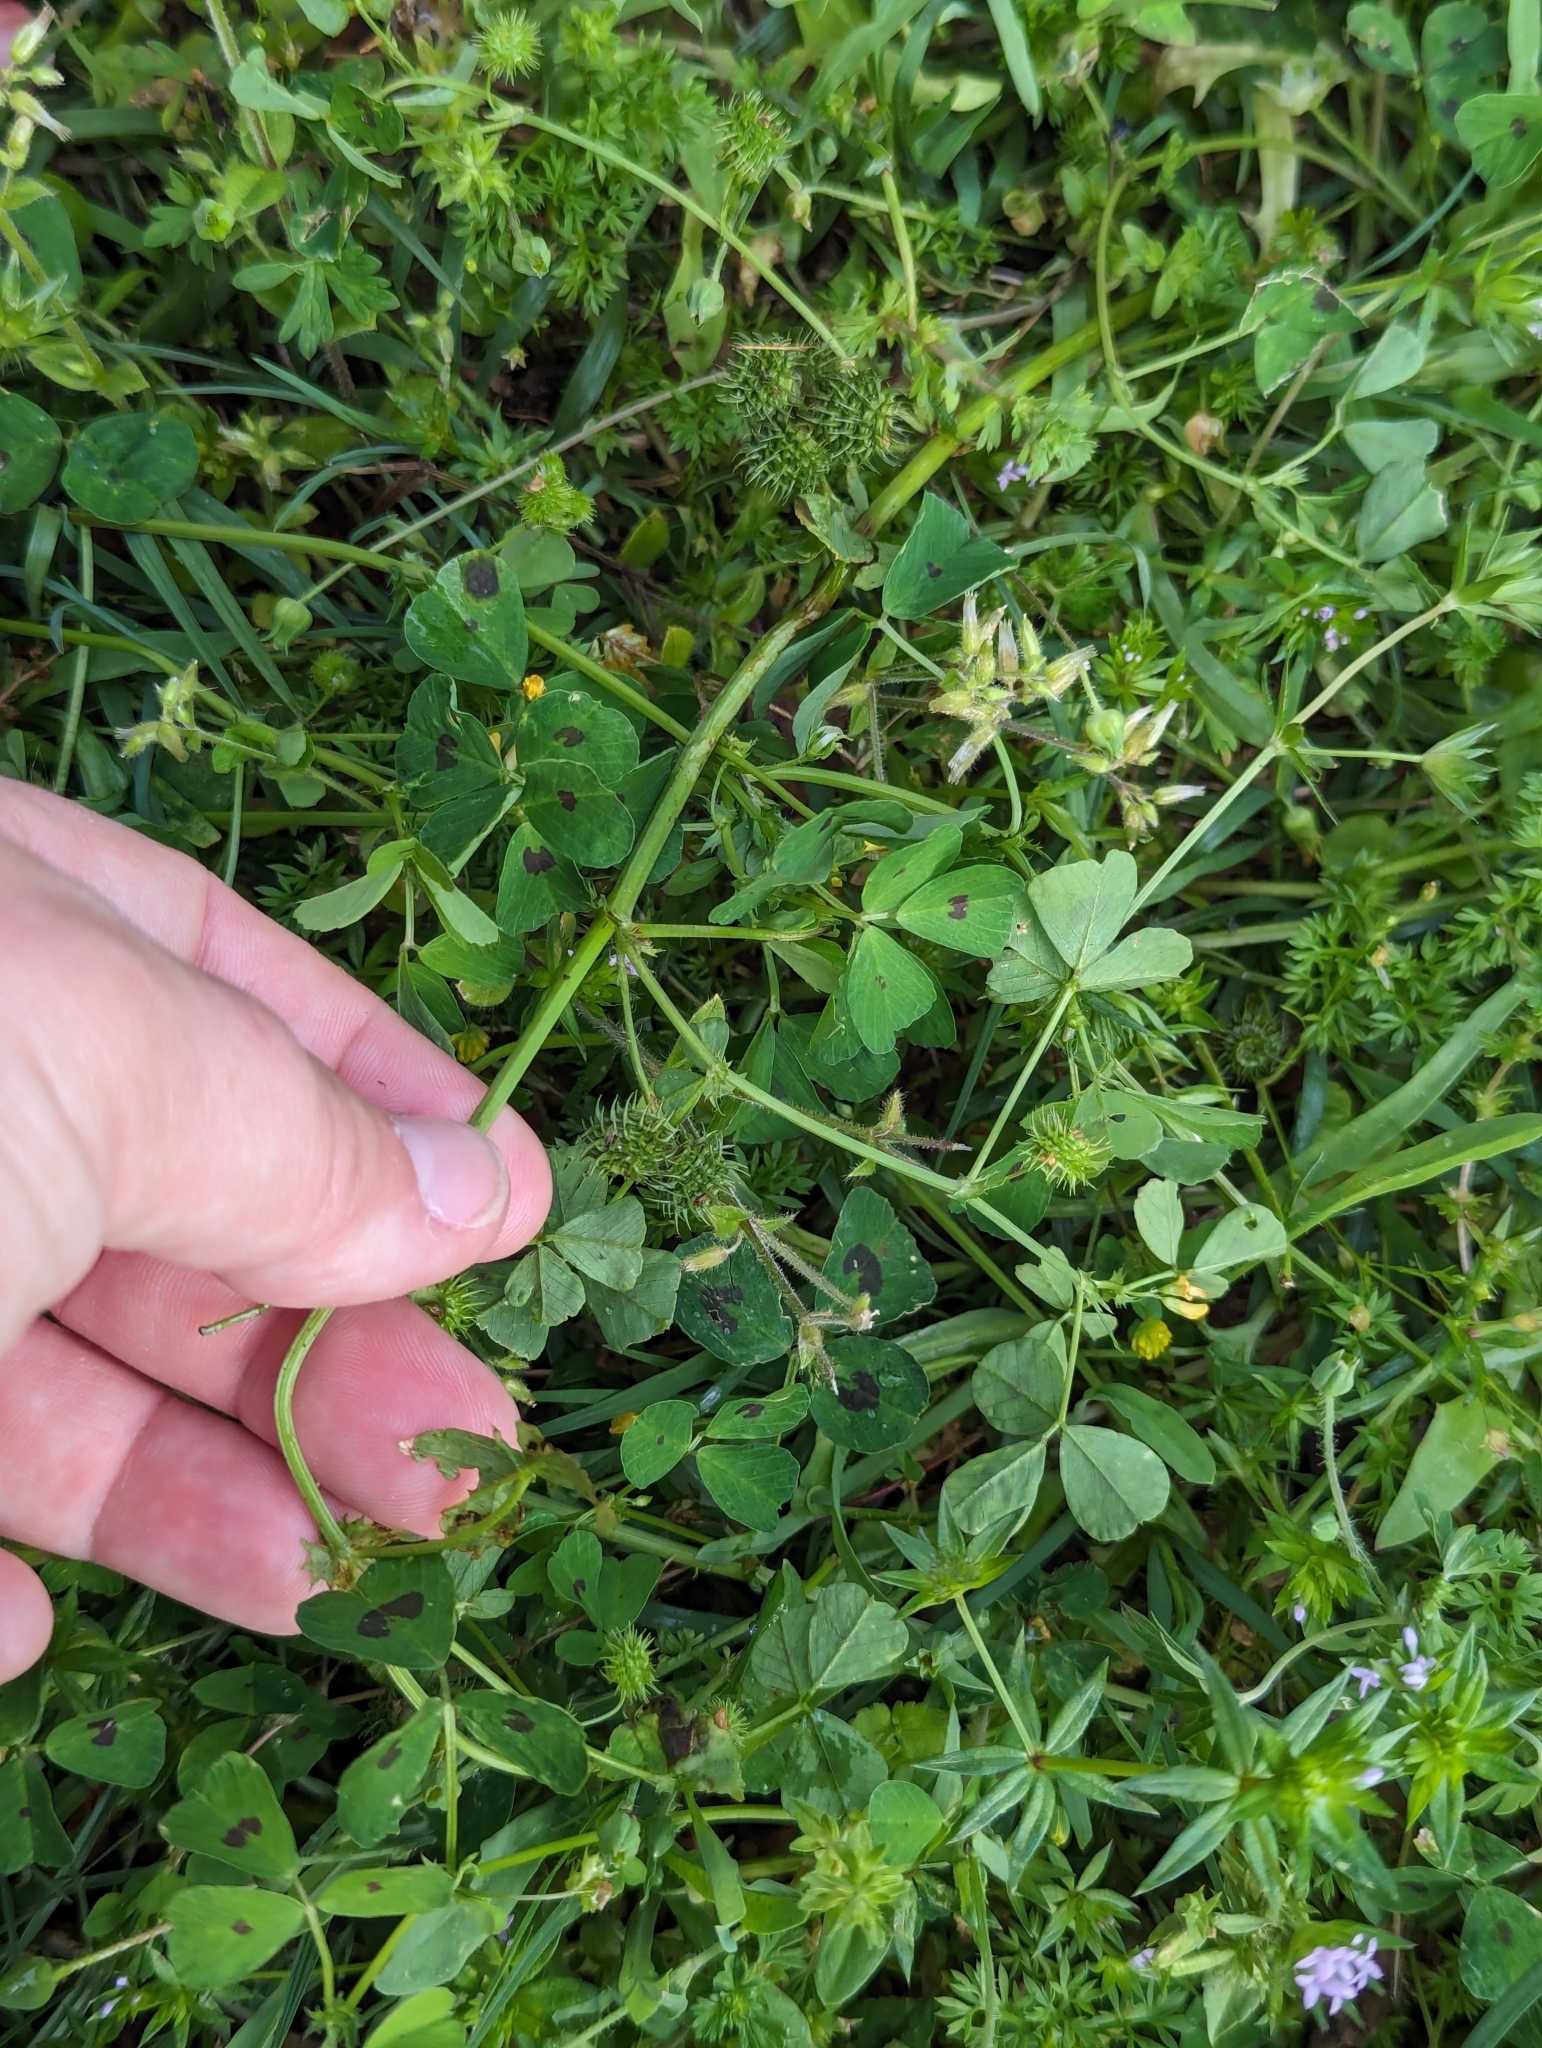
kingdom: Plantae
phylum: Tracheophyta
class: Magnoliopsida
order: Fabales
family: Fabaceae
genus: Medicago
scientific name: Medicago arabica
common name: Spotted medick
